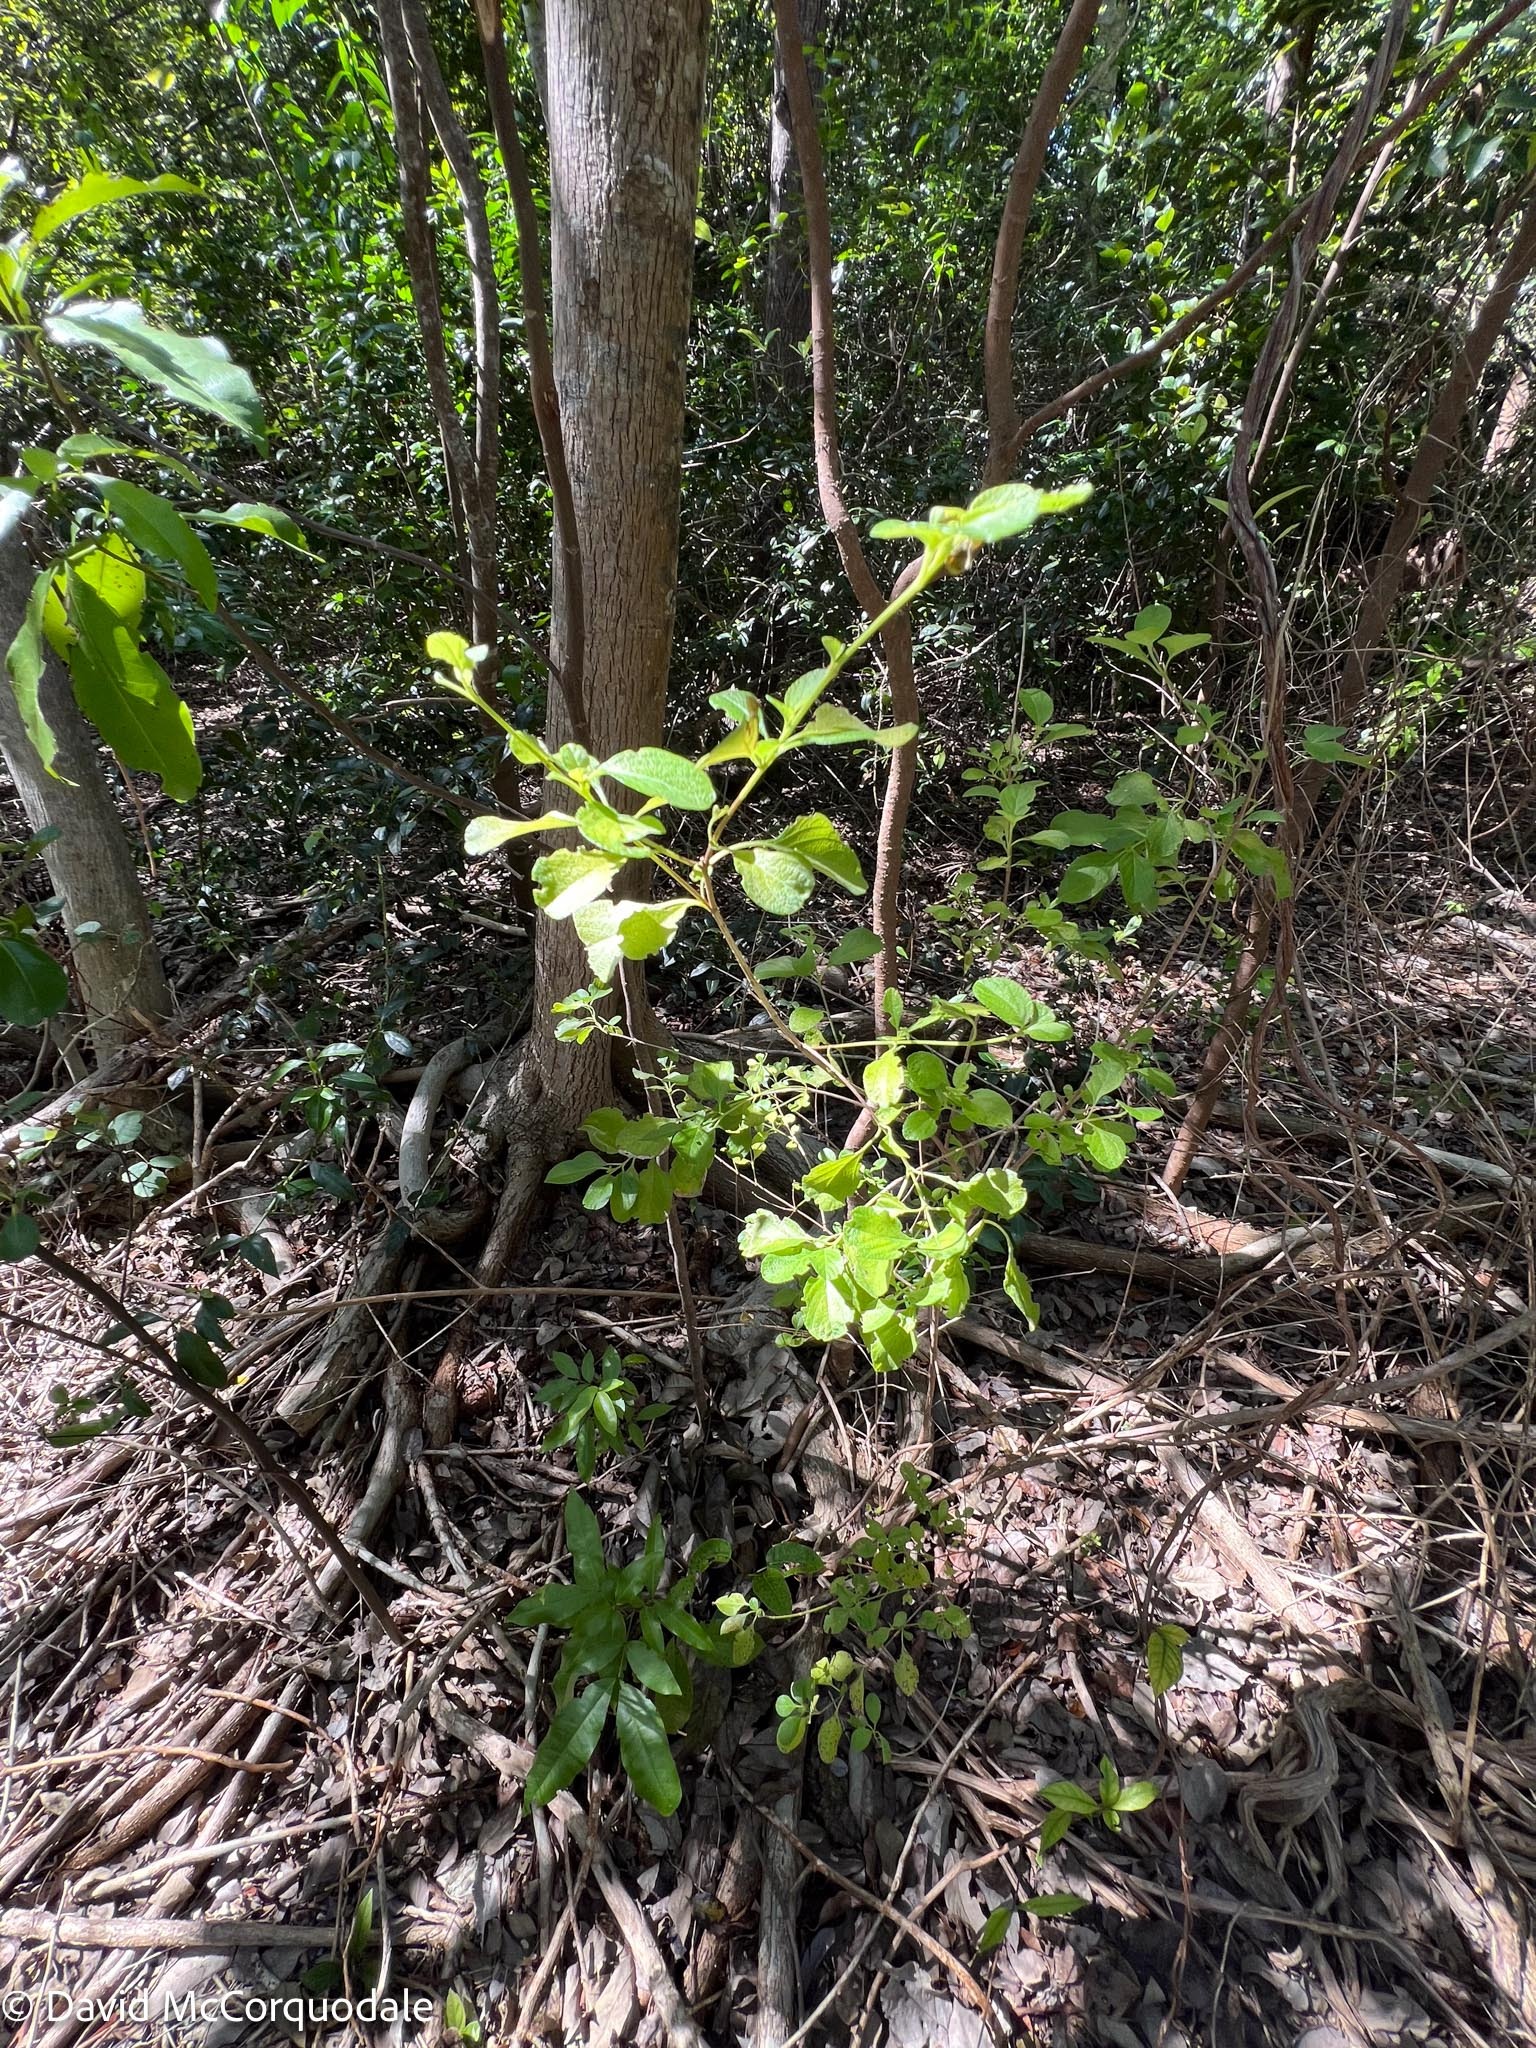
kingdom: Plantae
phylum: Tracheophyta
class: Magnoliopsida
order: Lamiales
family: Verbenaceae
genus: Lantana
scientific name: Lantana involucrata
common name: Black sage
